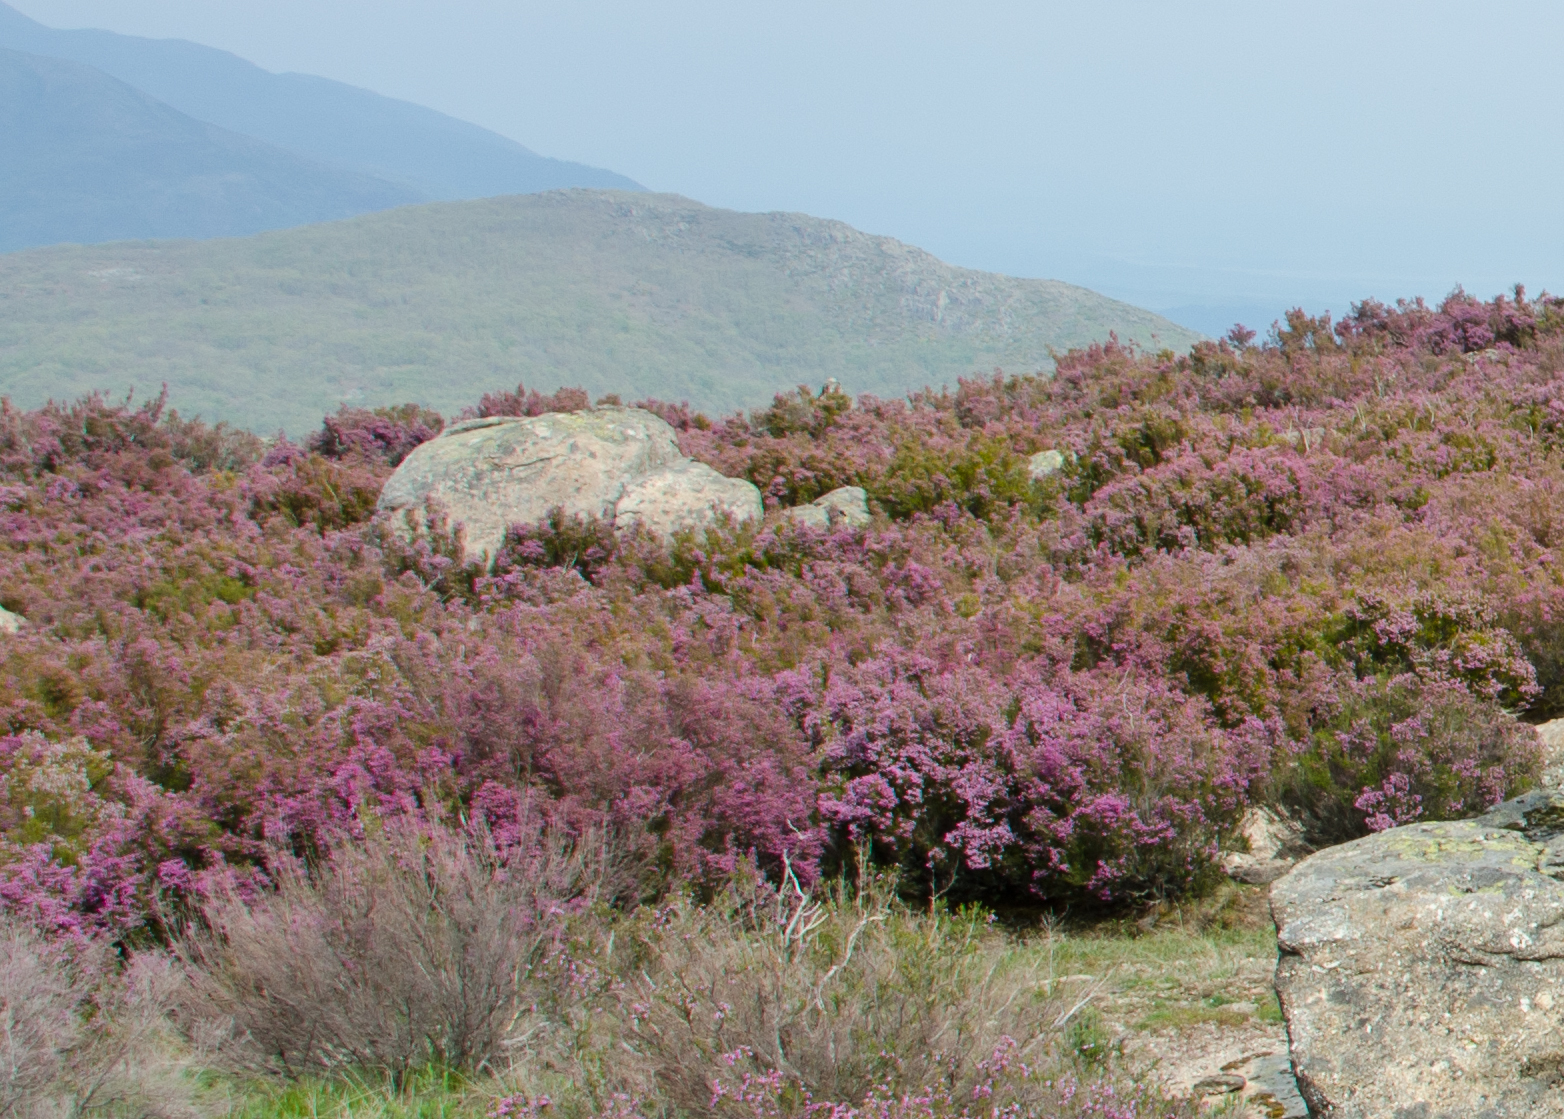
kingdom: Plantae
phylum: Tracheophyta
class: Magnoliopsida
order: Ericales
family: Ericaceae
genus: Erica
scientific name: Erica australis
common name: Spanish heath
